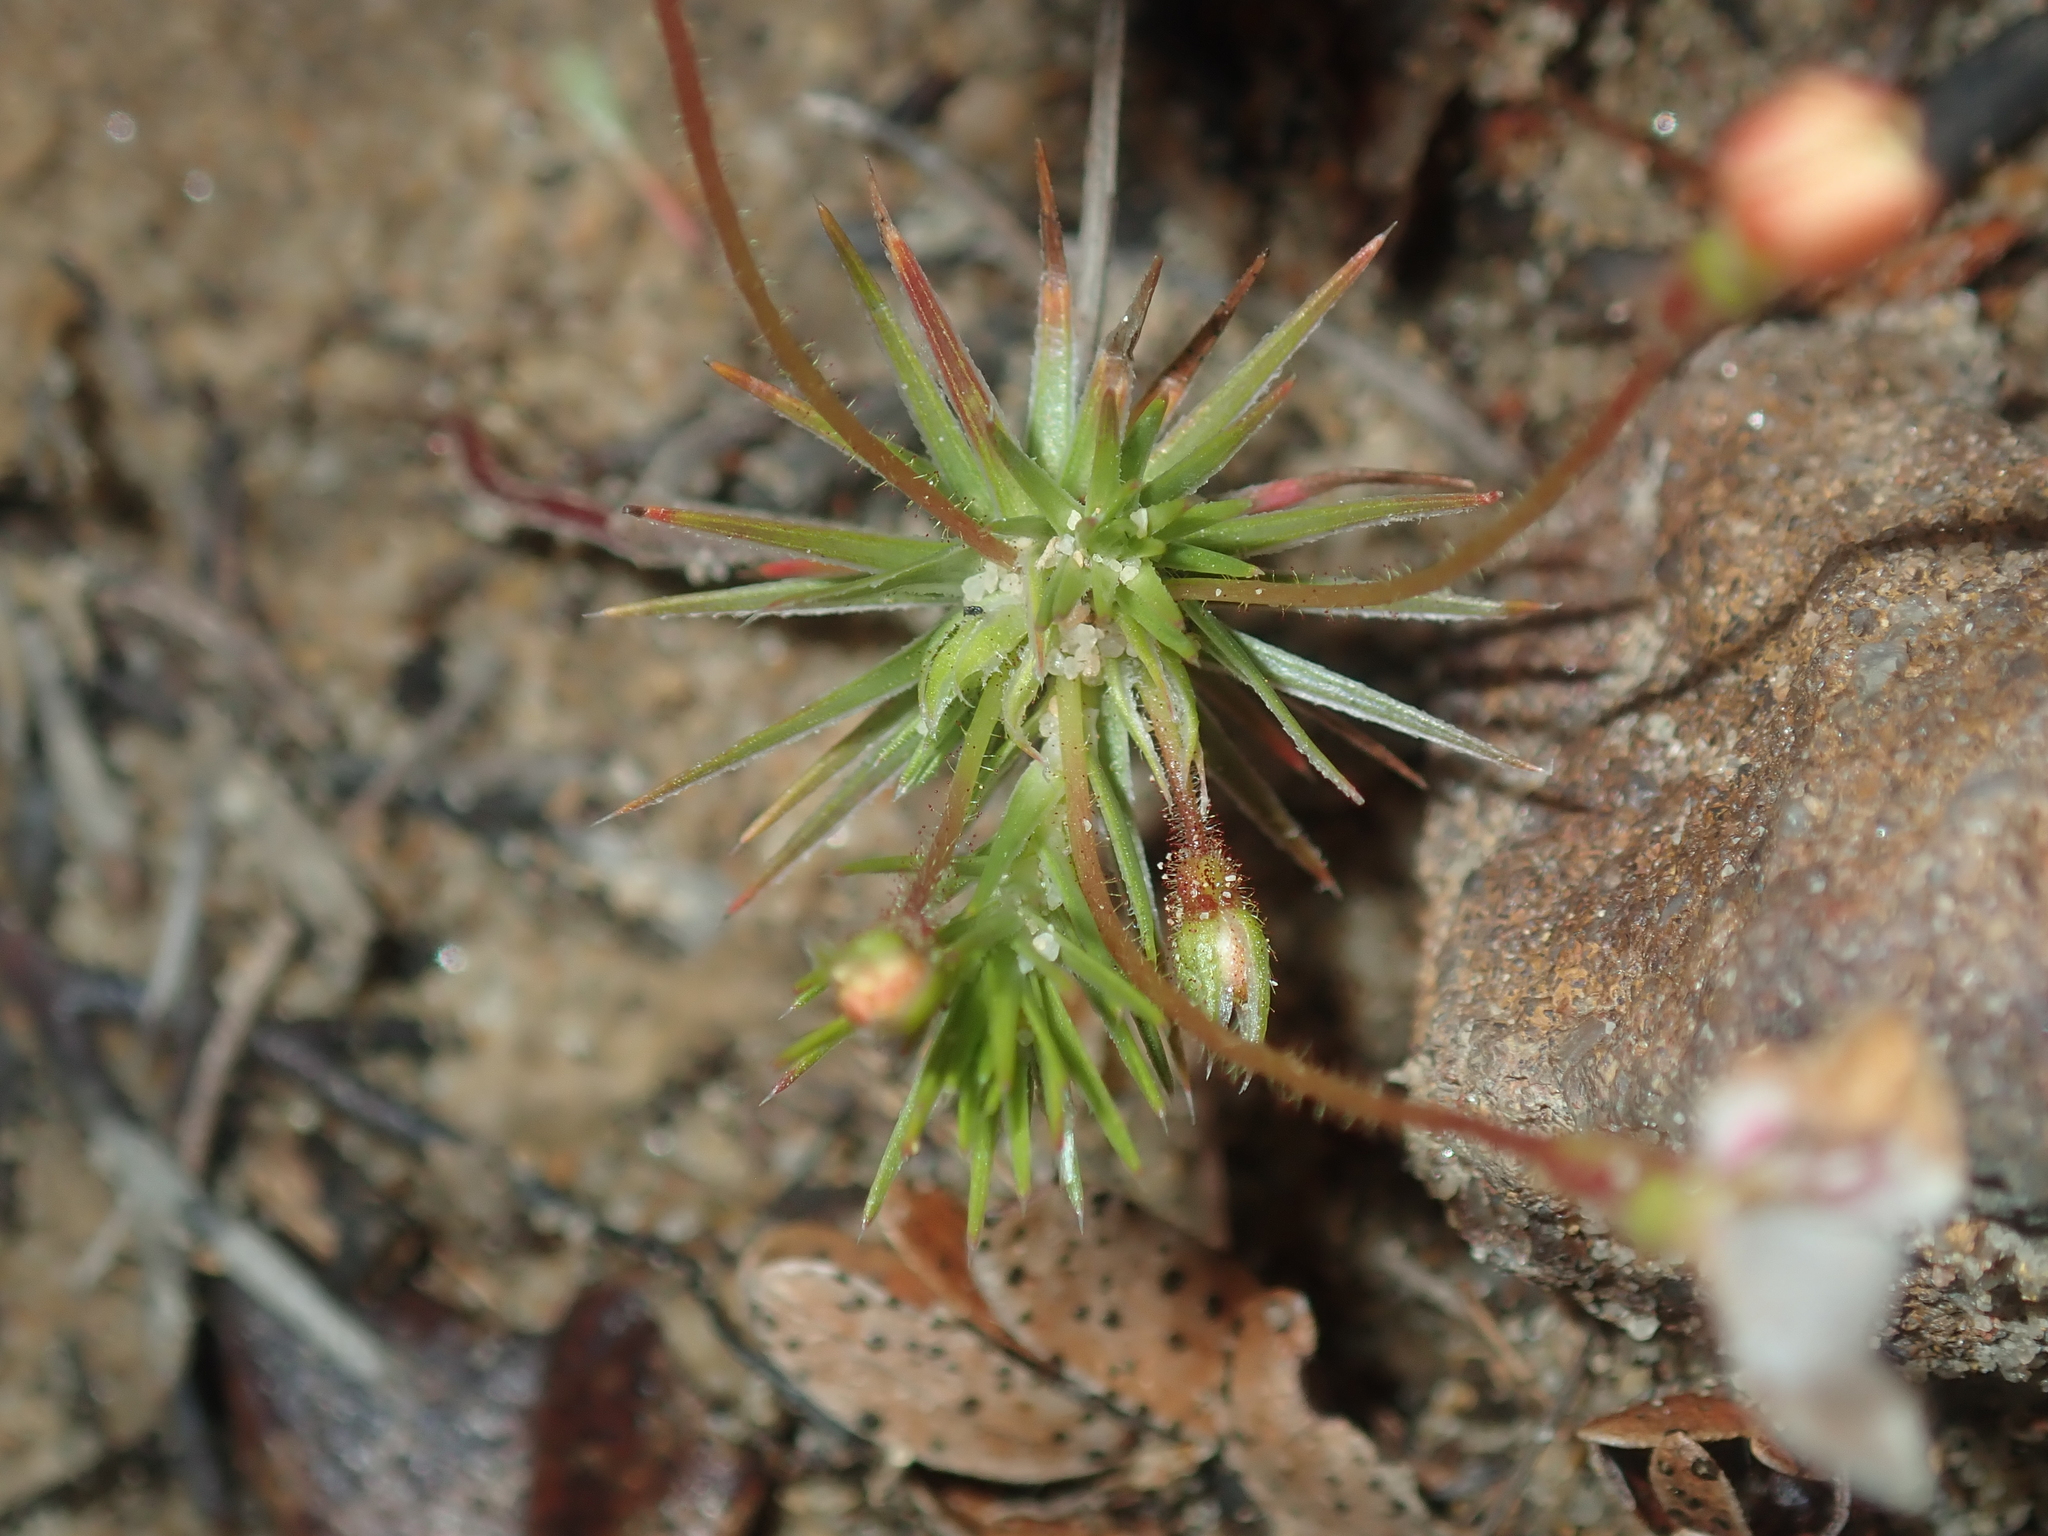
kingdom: Plantae
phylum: Tracheophyta
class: Magnoliopsida
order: Asterales
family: Stylidiaceae
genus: Stylidium
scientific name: Stylidium flagellum
